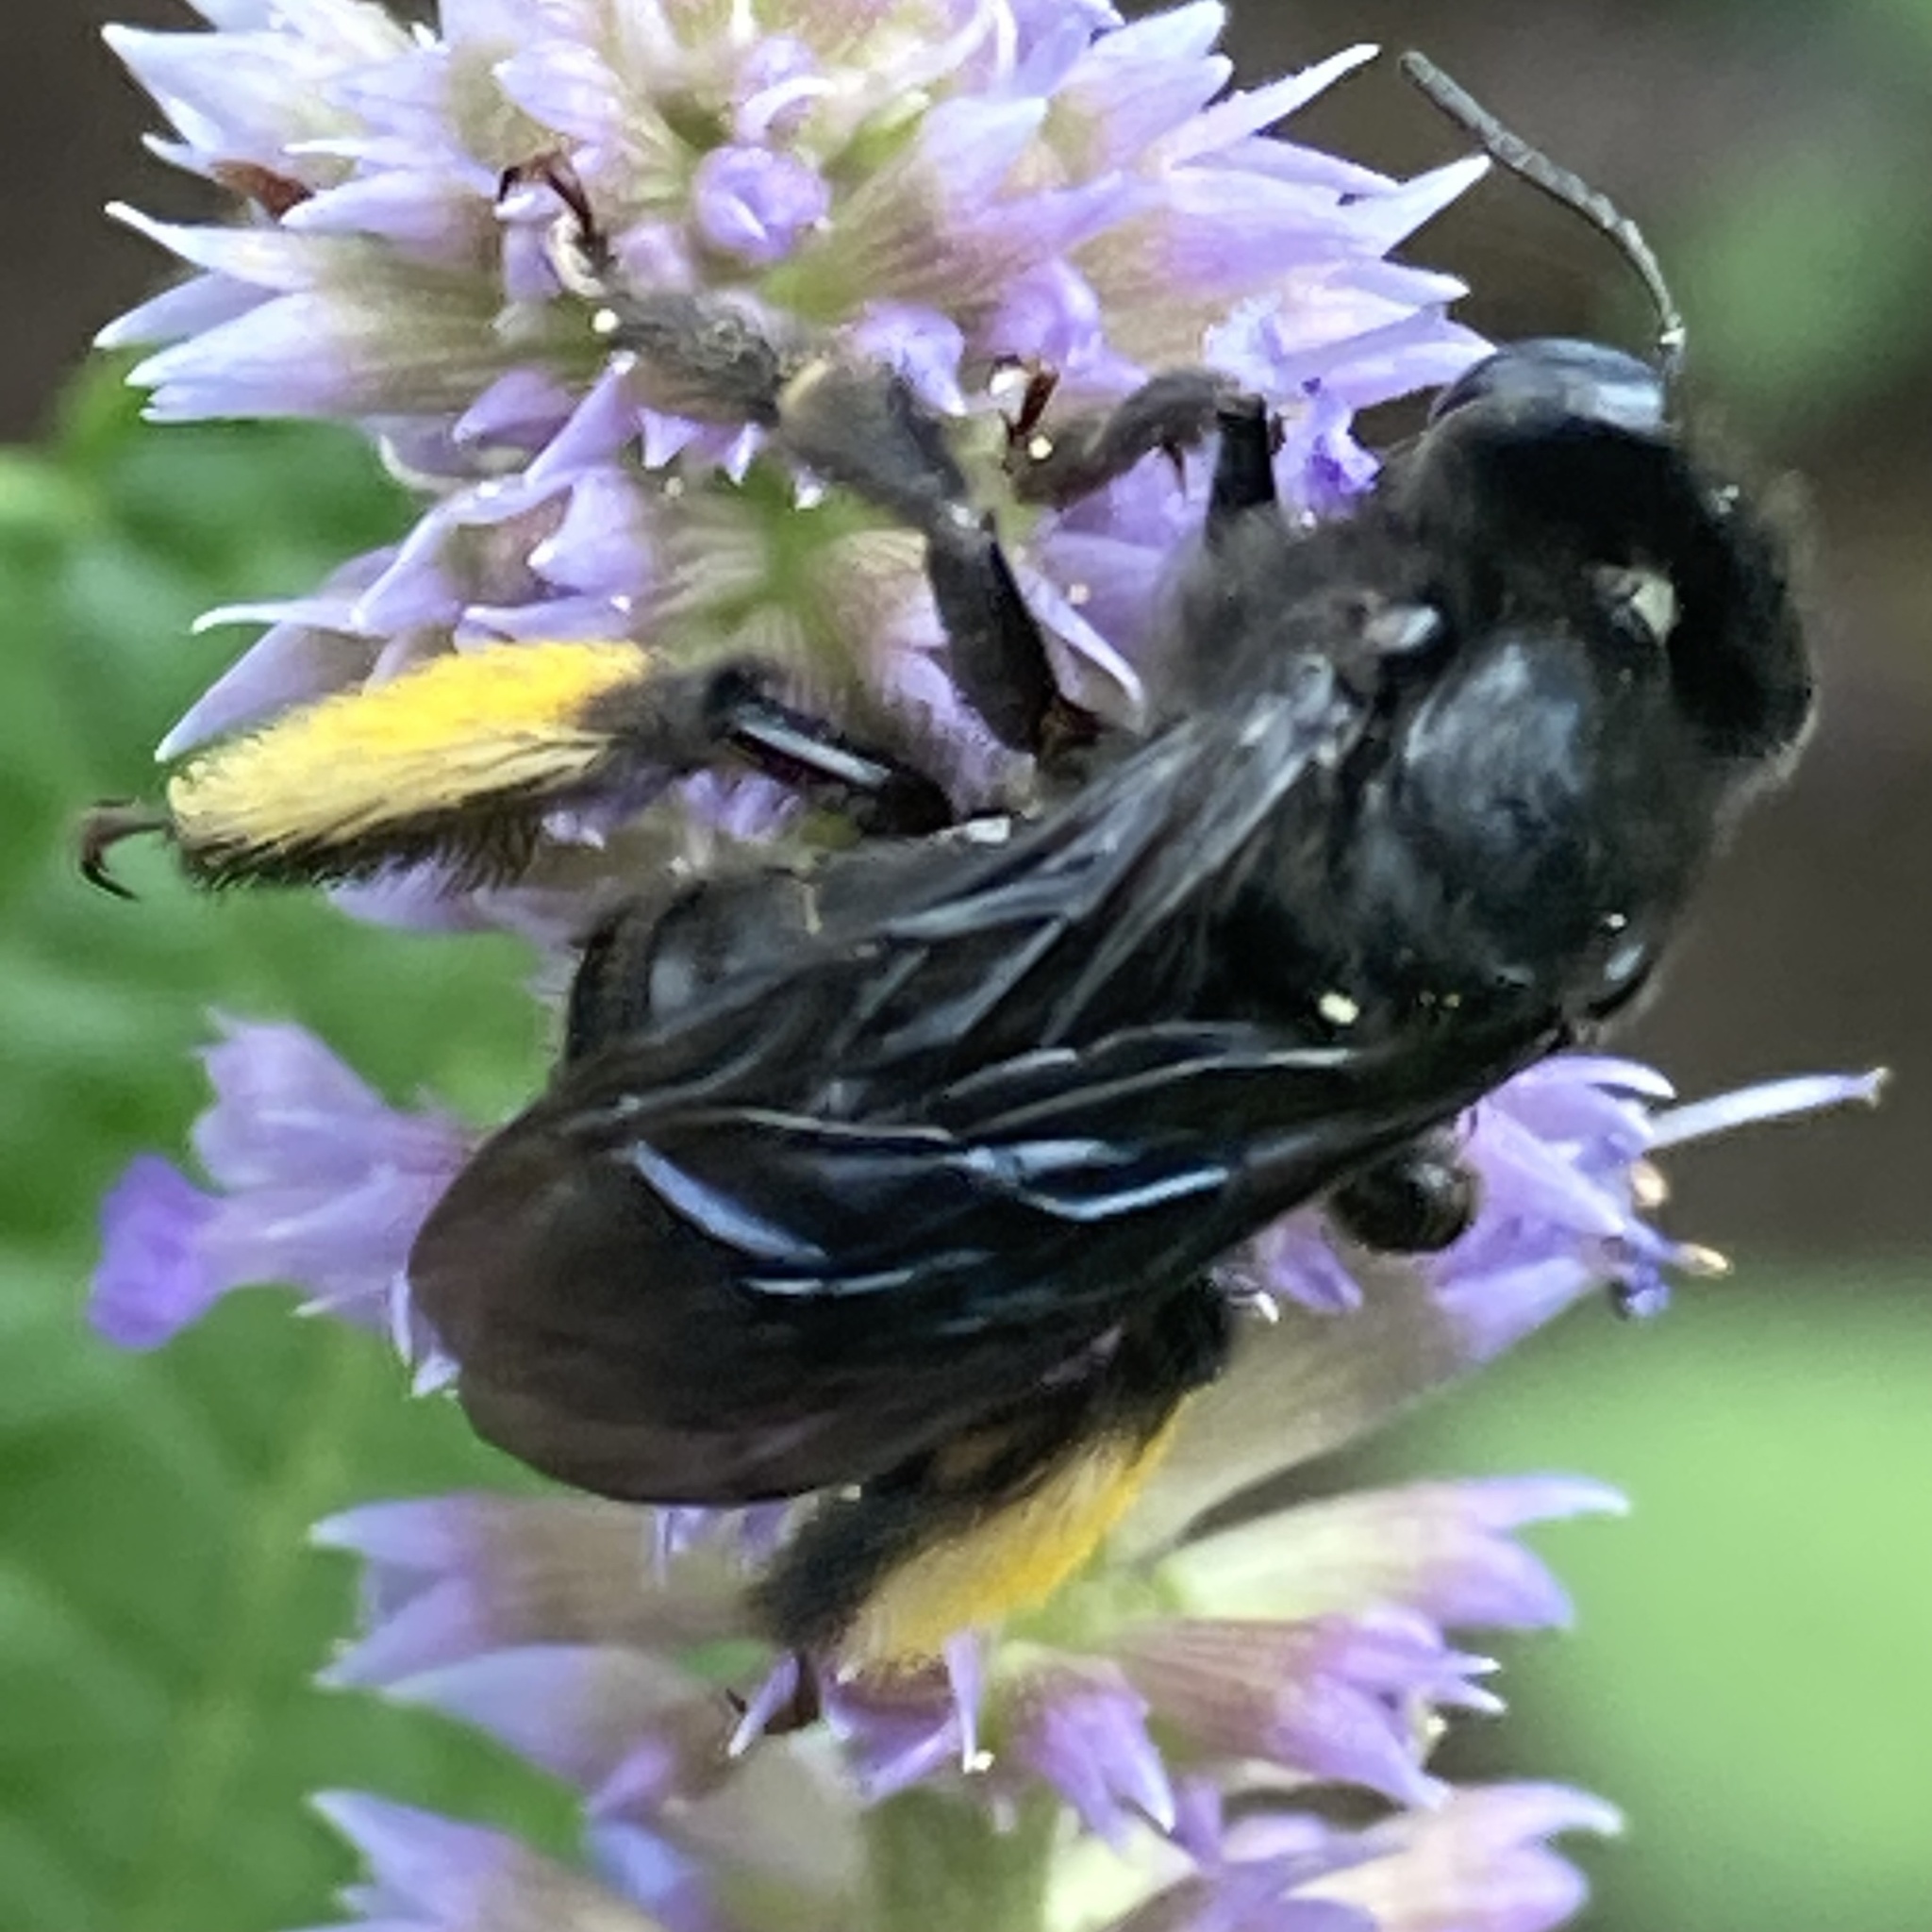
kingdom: Animalia
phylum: Arthropoda
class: Insecta
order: Hymenoptera
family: Apidae
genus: Melissodes
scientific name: Melissodes bimaculatus
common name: Two-spotted long-horned bee
